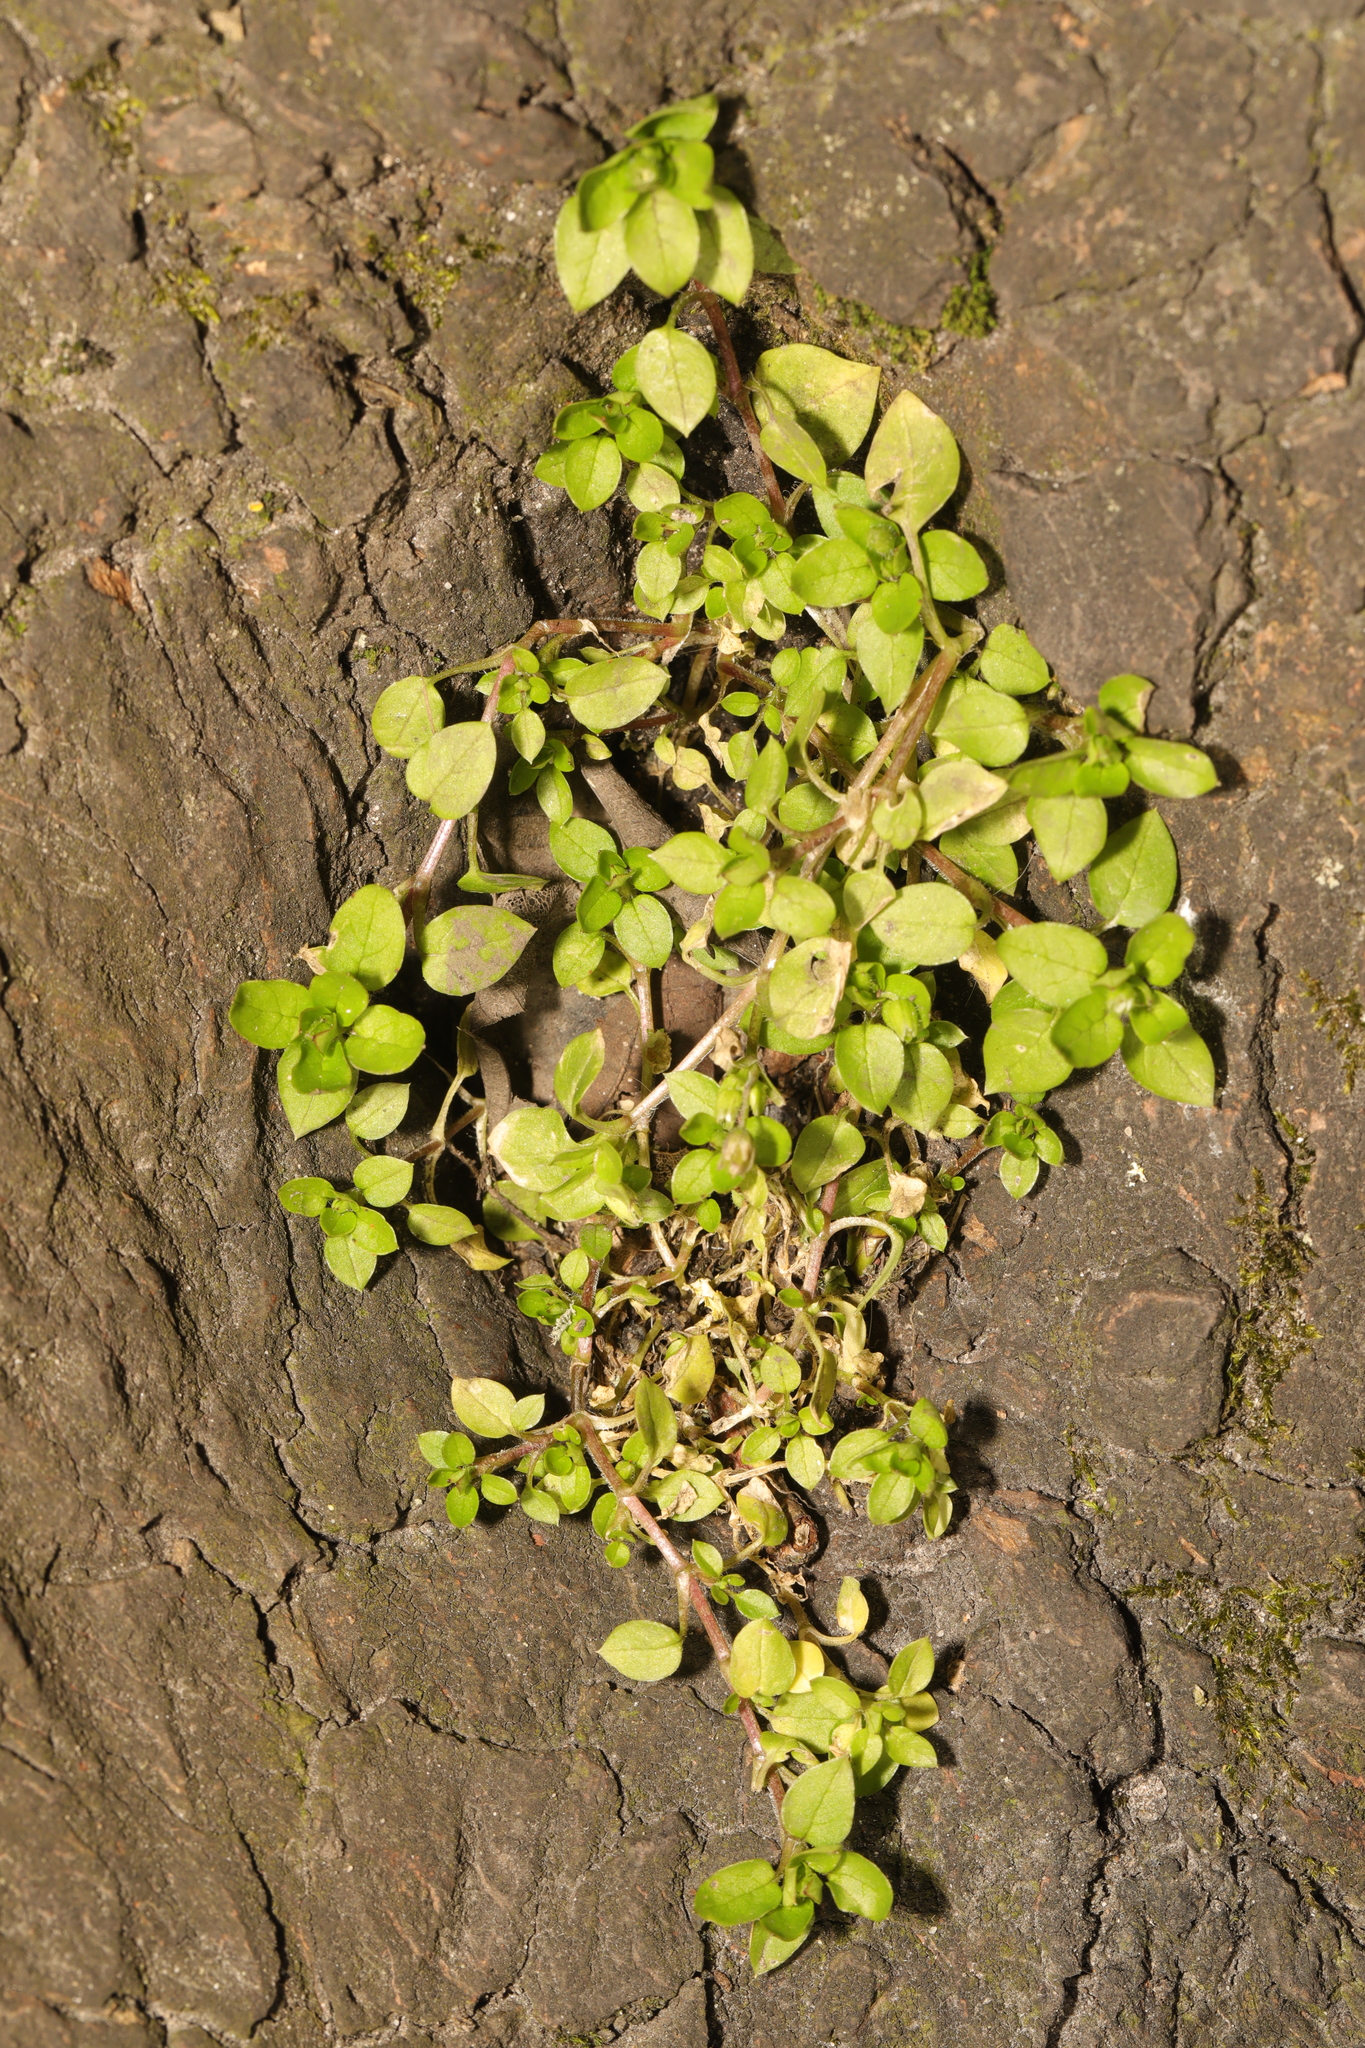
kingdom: Plantae
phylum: Tracheophyta
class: Magnoliopsida
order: Caryophyllales
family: Caryophyllaceae
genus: Stellaria
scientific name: Stellaria media
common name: Common chickweed
